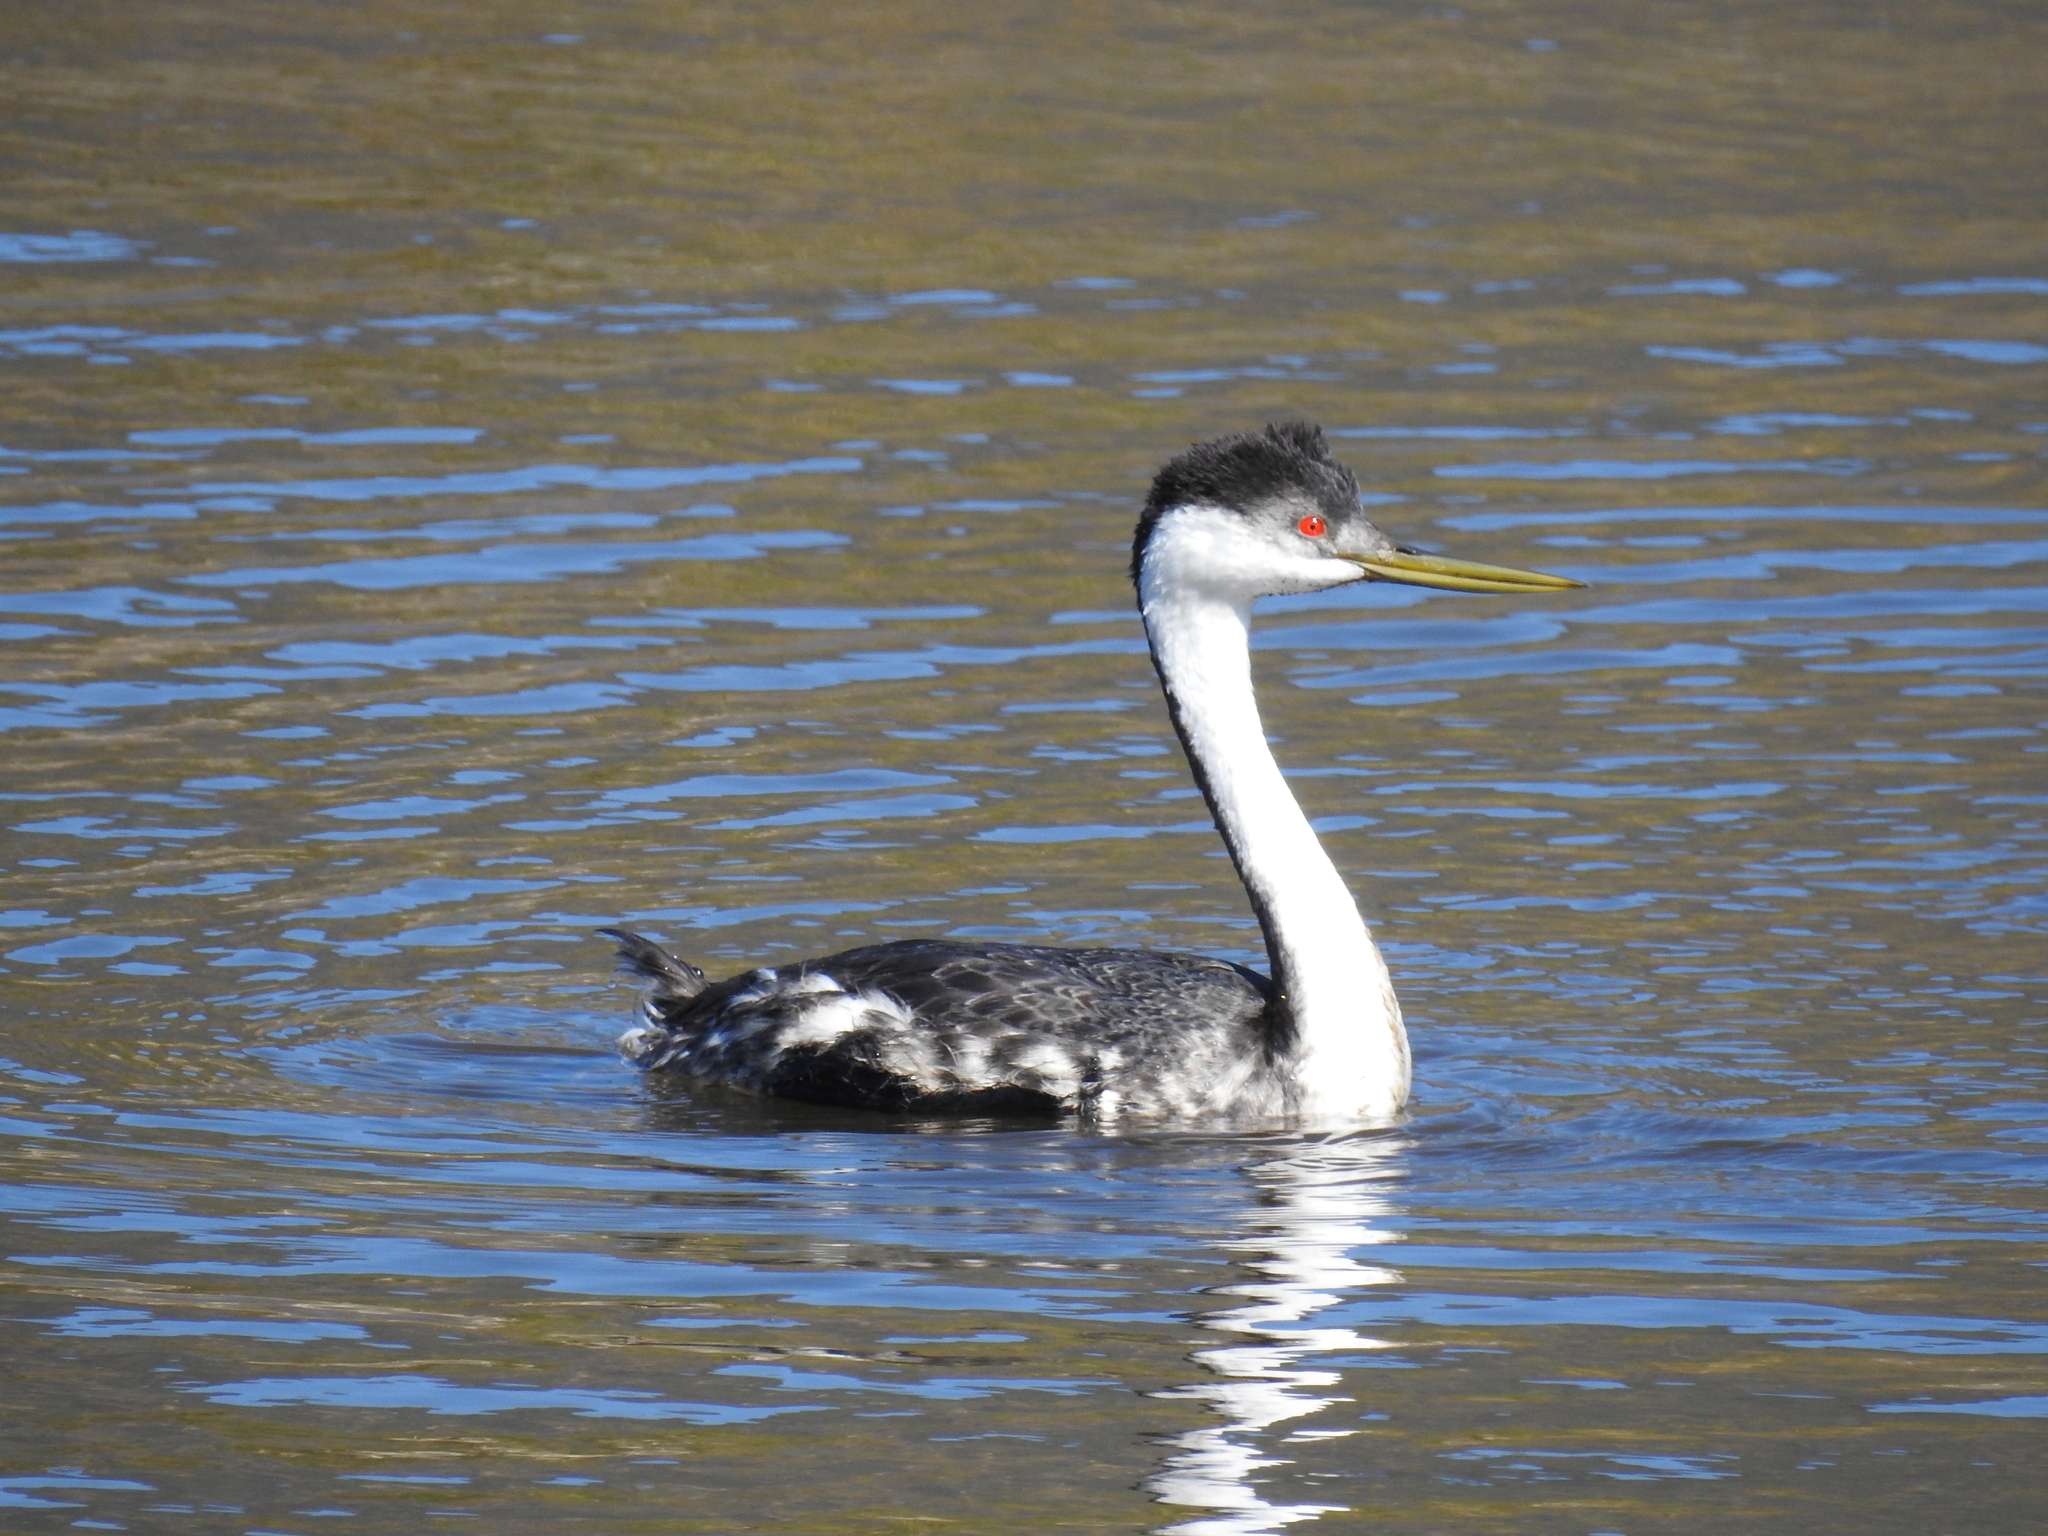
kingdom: Animalia
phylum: Chordata
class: Aves
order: Podicipediformes
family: Podicipedidae
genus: Aechmophorus
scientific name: Aechmophorus occidentalis
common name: Western grebe
